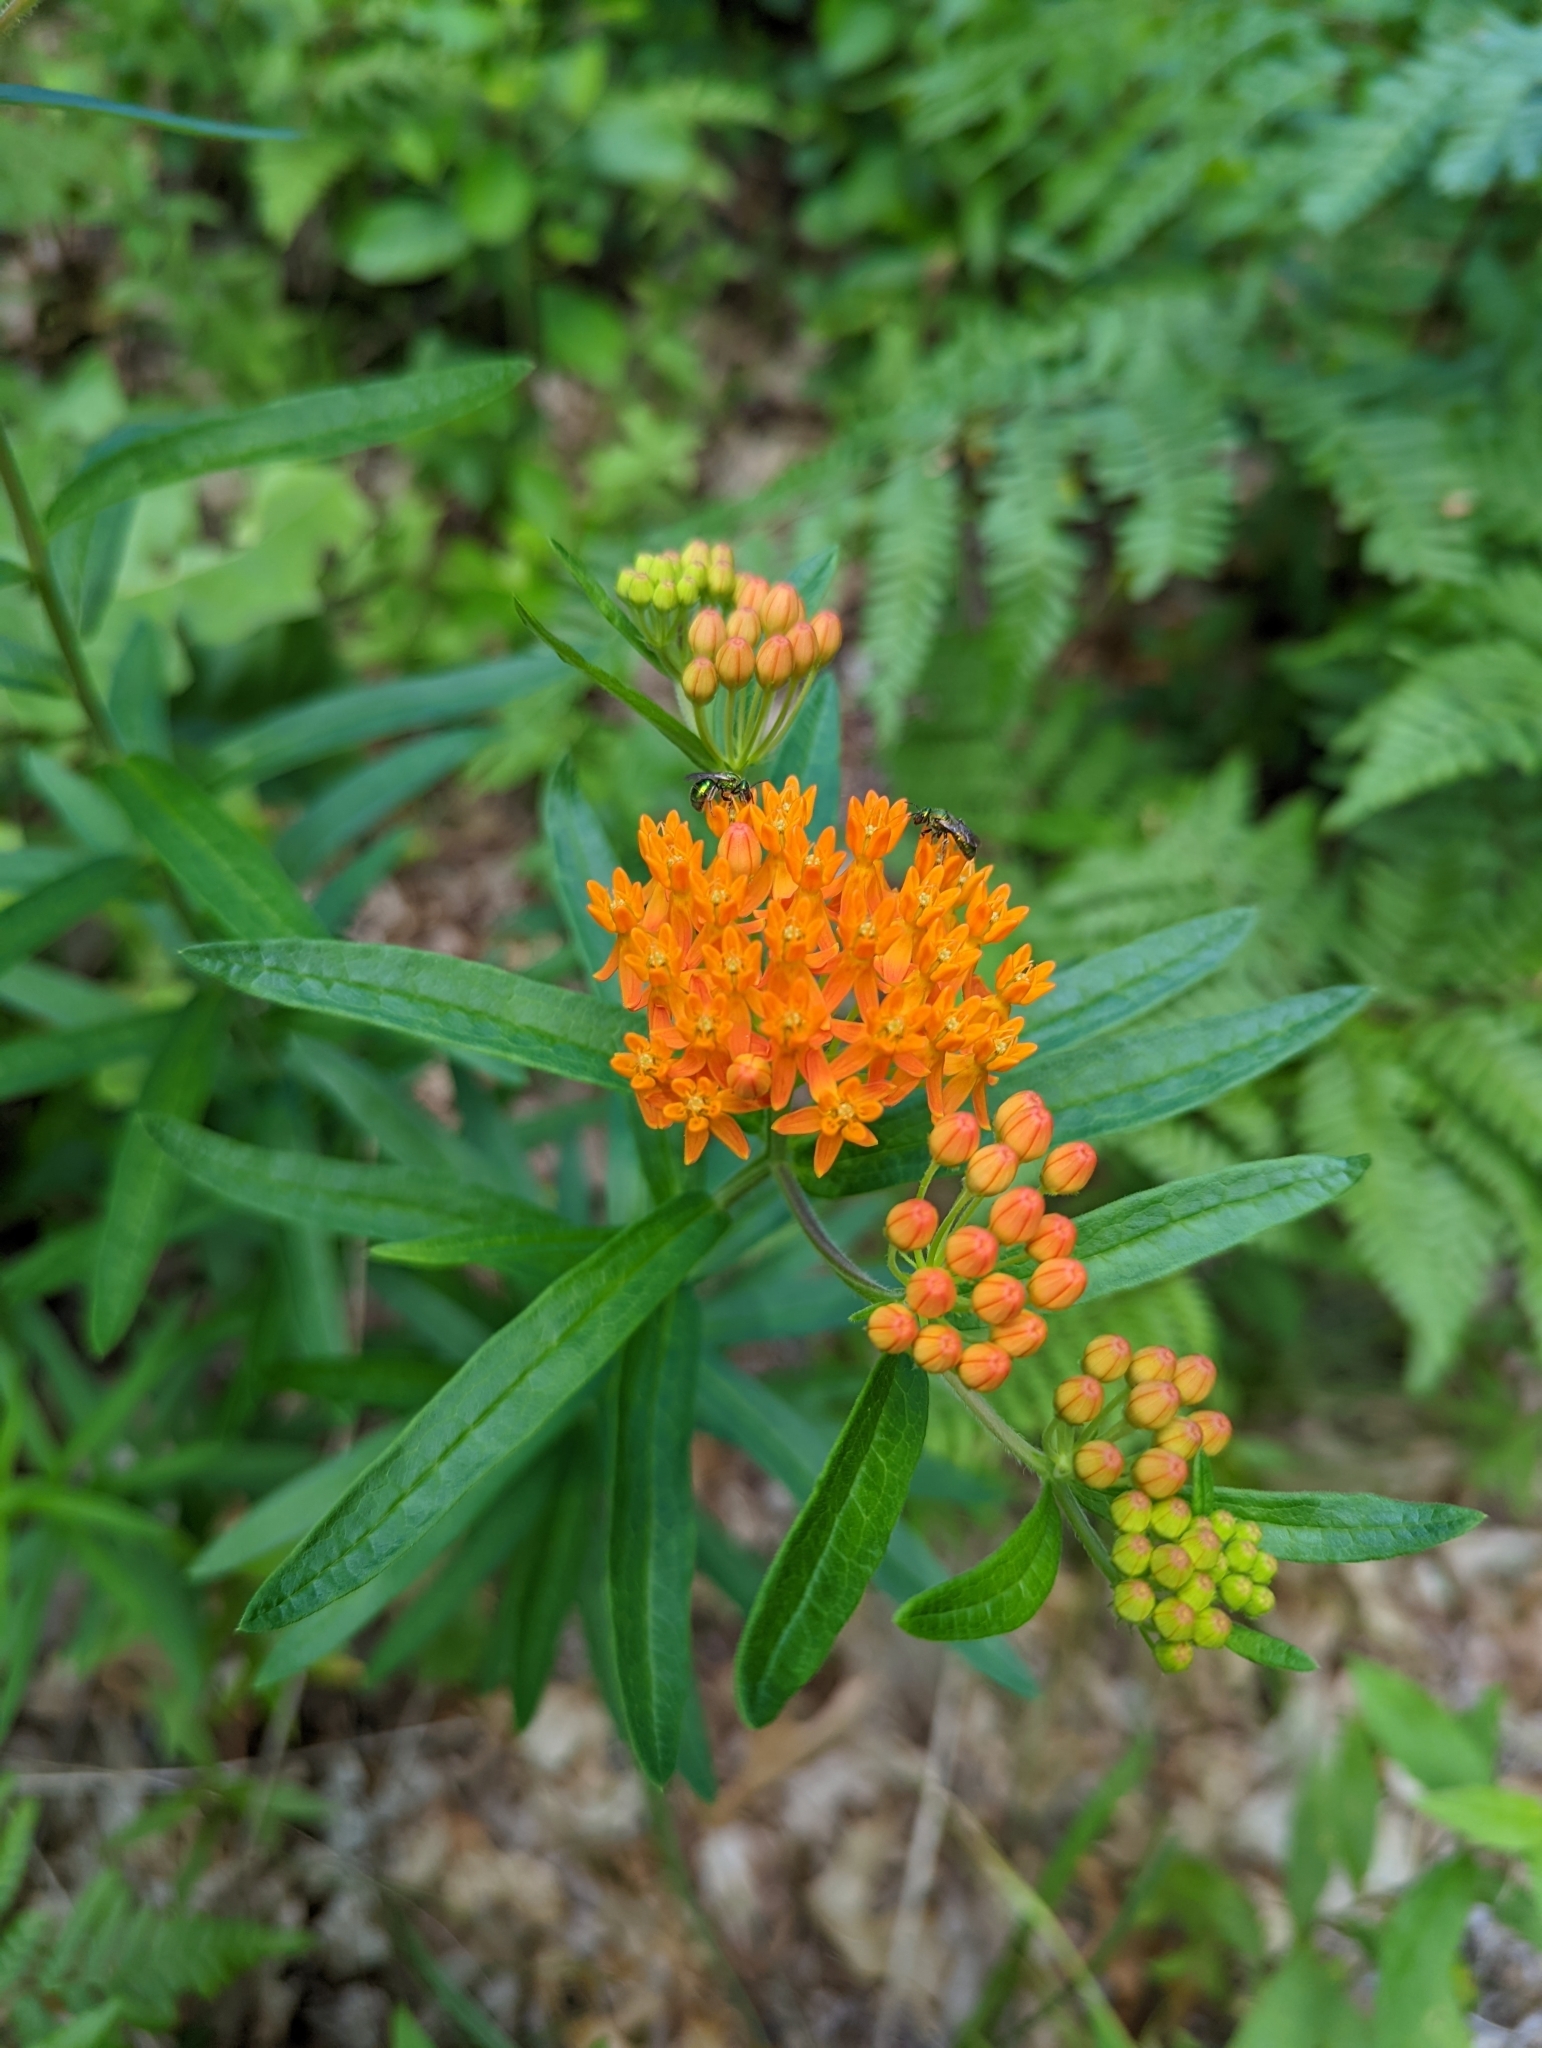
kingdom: Plantae
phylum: Tracheophyta
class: Magnoliopsida
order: Gentianales
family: Apocynaceae
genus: Asclepias
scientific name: Asclepias tuberosa
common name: Butterfly milkweed
